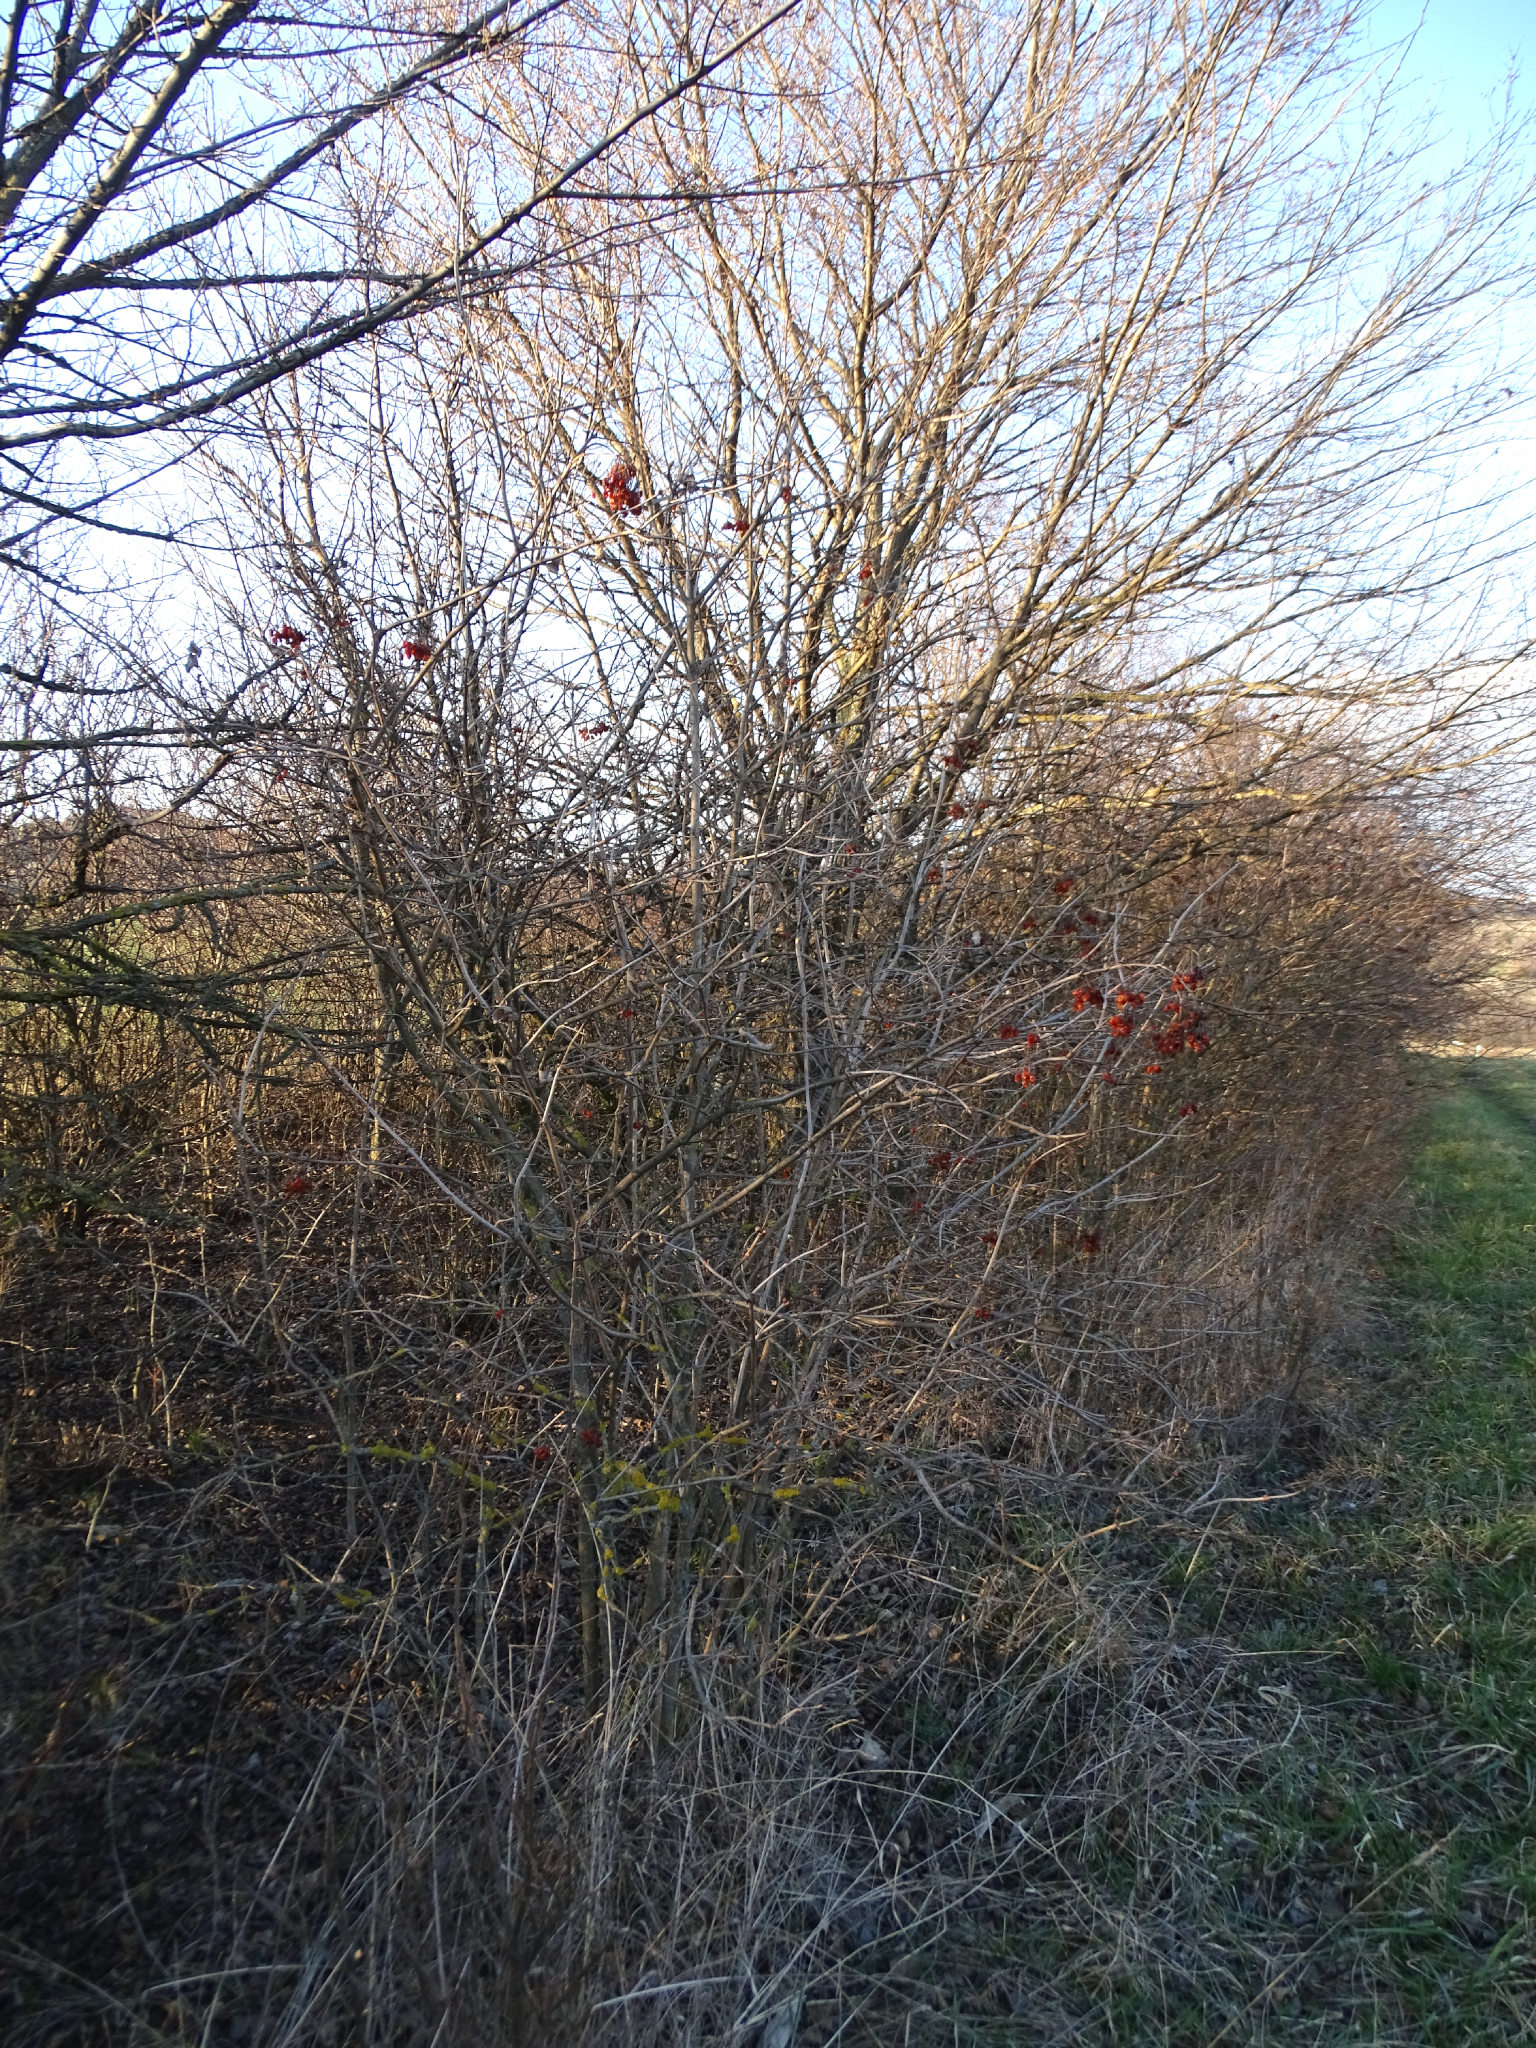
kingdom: Plantae
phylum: Tracheophyta
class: Magnoliopsida
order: Dipsacales
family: Viburnaceae
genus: Viburnum
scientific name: Viburnum opulus
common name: Guelder-rose
